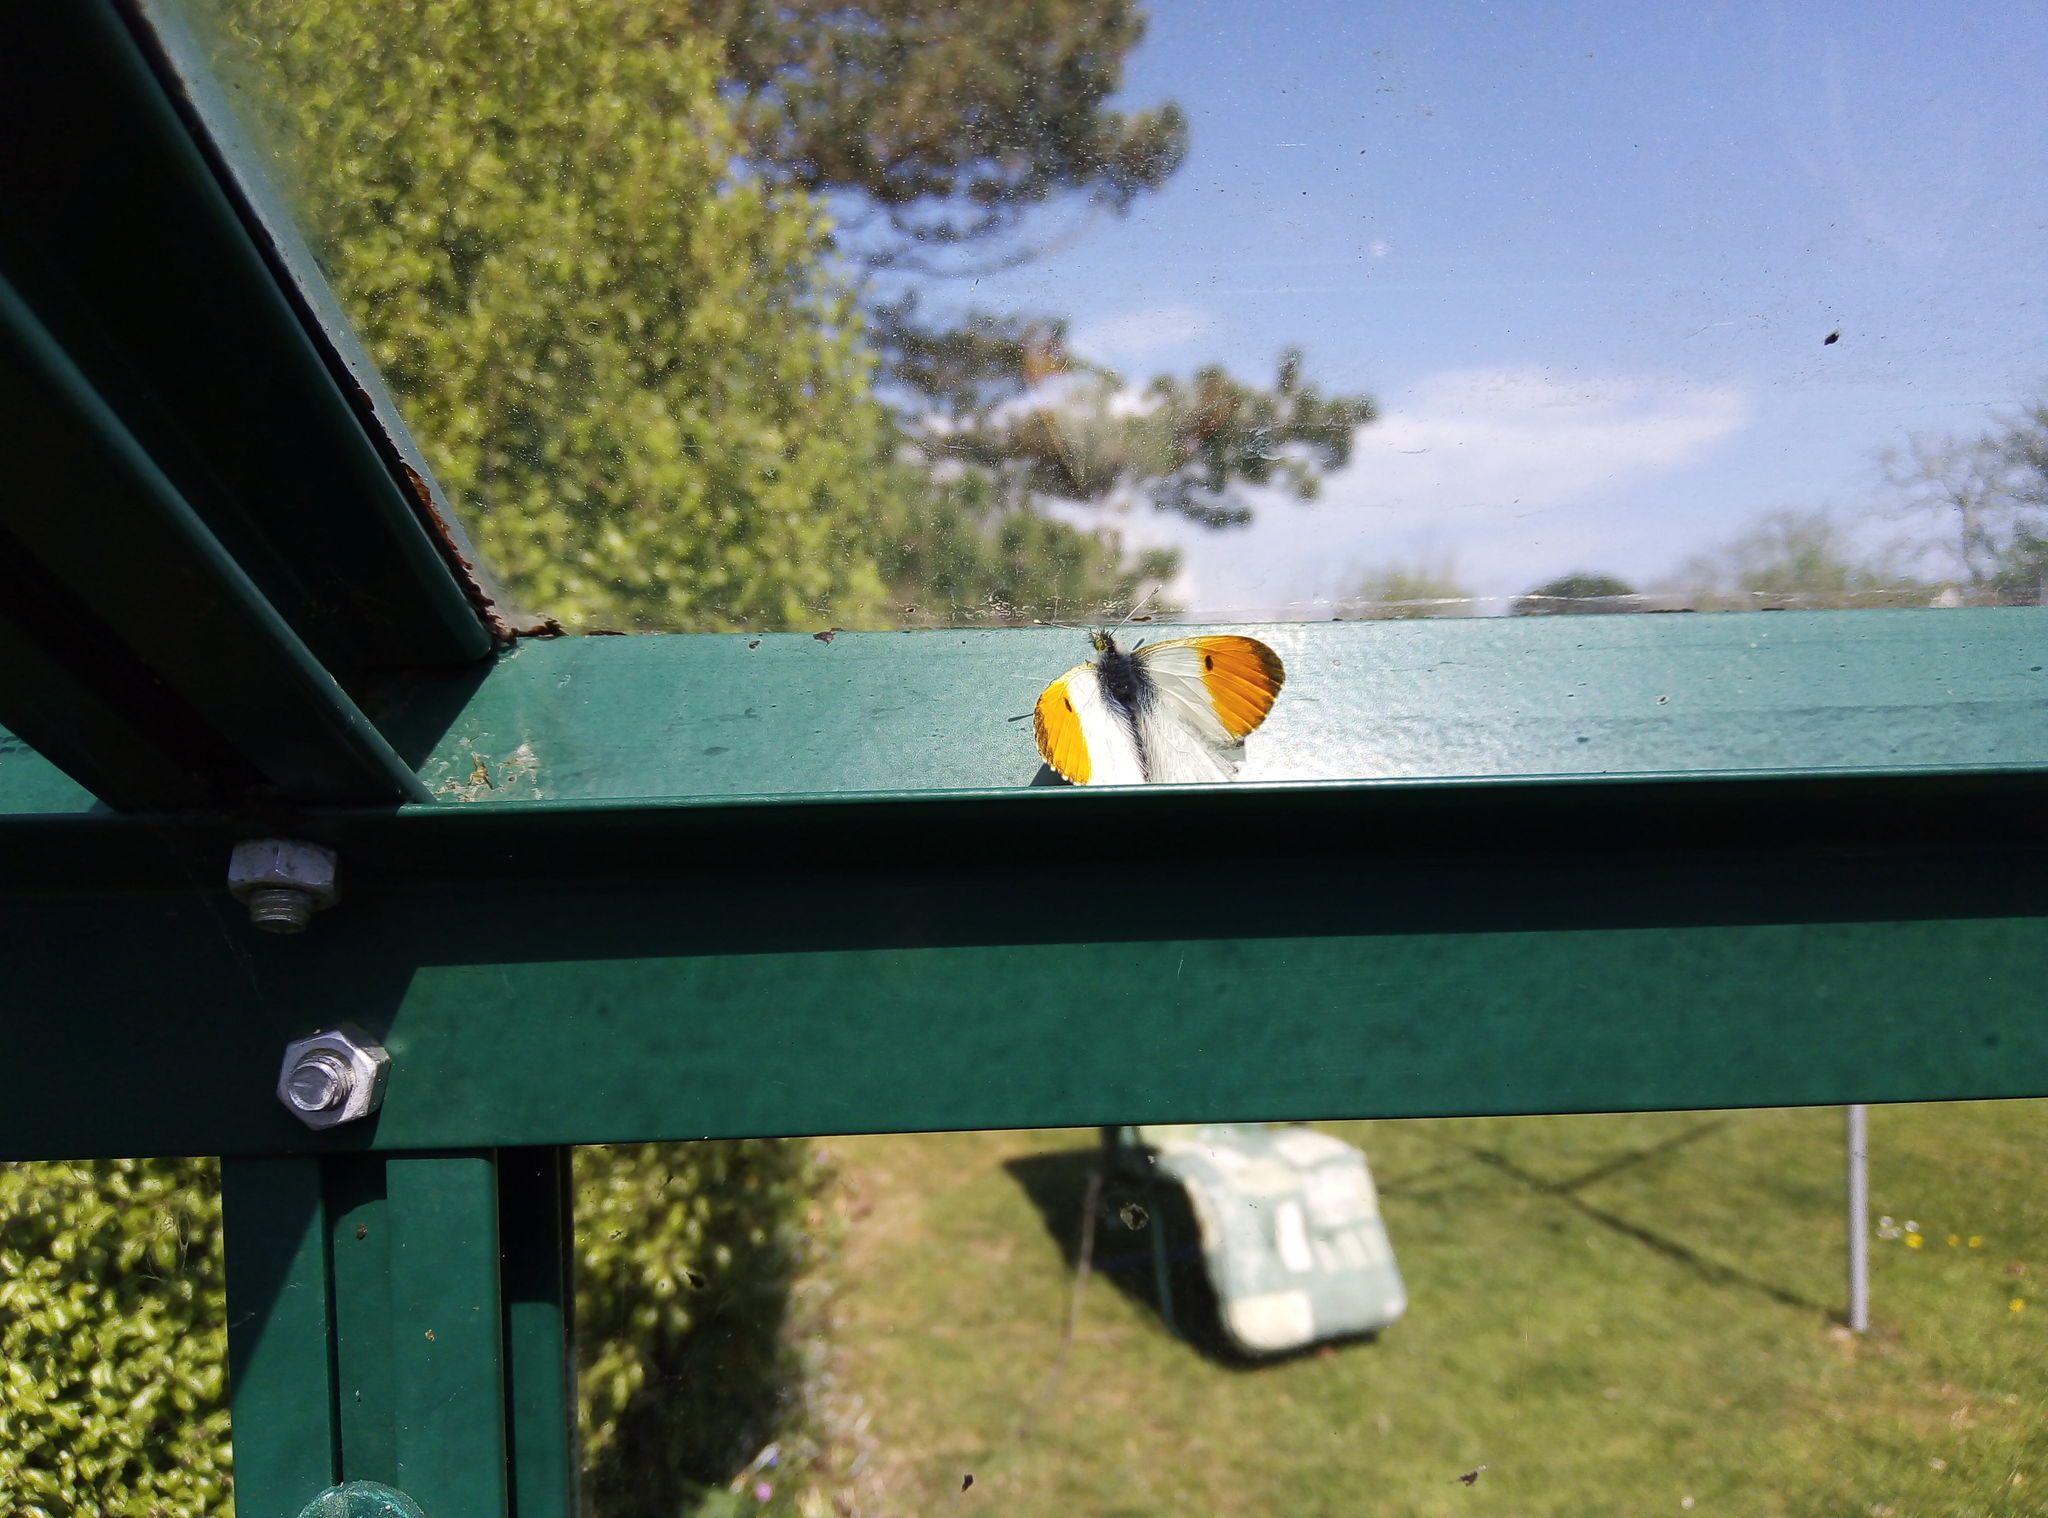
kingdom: Animalia
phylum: Arthropoda
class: Insecta
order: Lepidoptera
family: Pieridae
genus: Anthocharis
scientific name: Anthocharis cardamines
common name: Orange-tip
